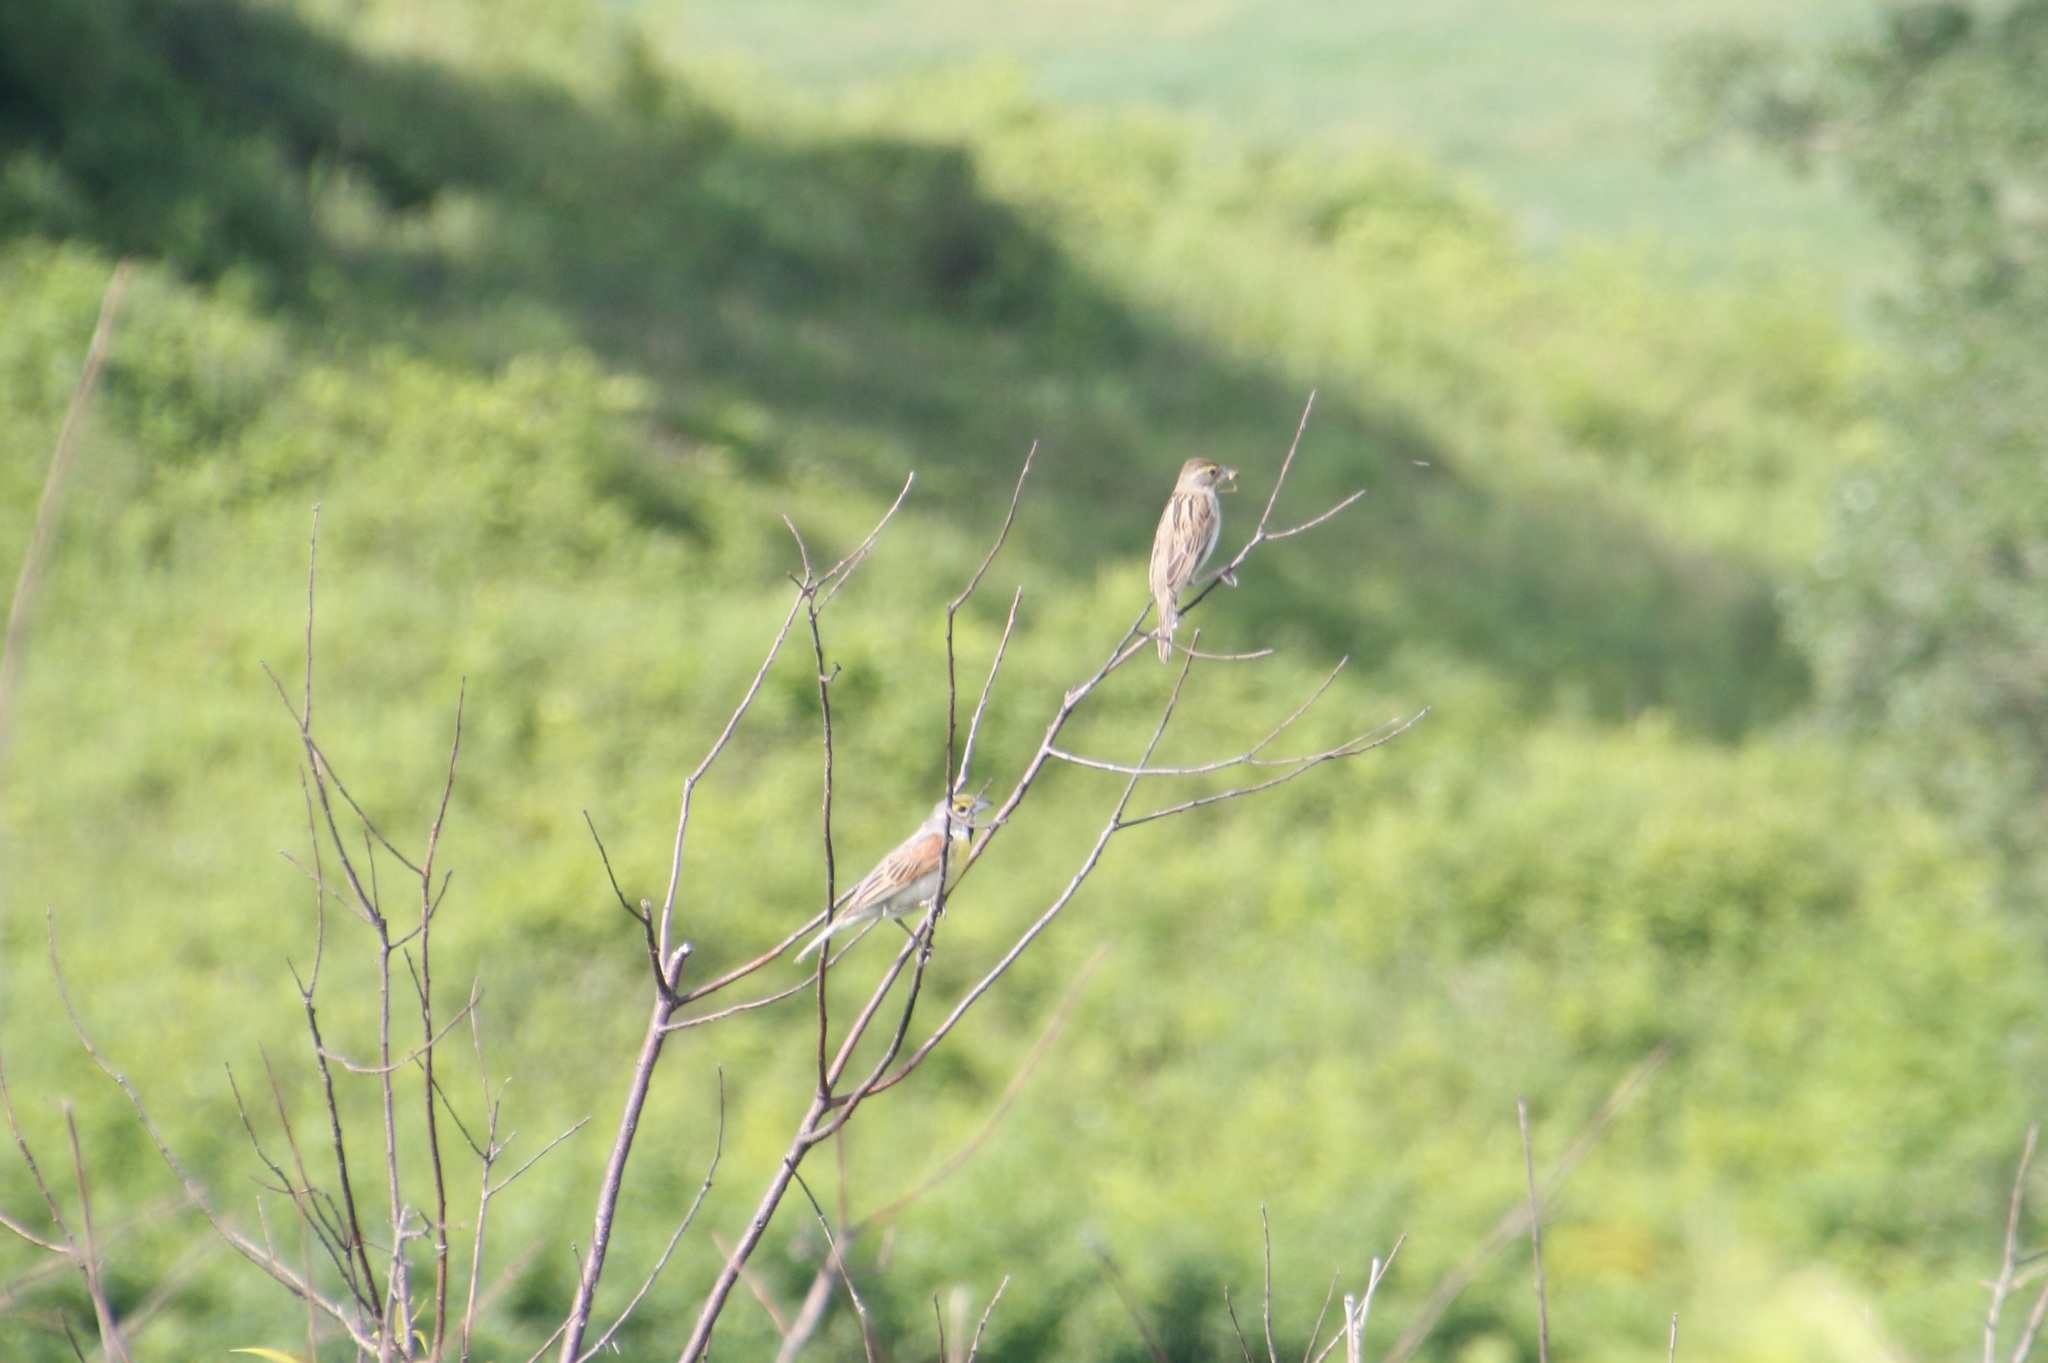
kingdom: Animalia
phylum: Chordata
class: Aves
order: Passeriformes
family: Cardinalidae
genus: Spiza
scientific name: Spiza americana
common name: Dickcissel
